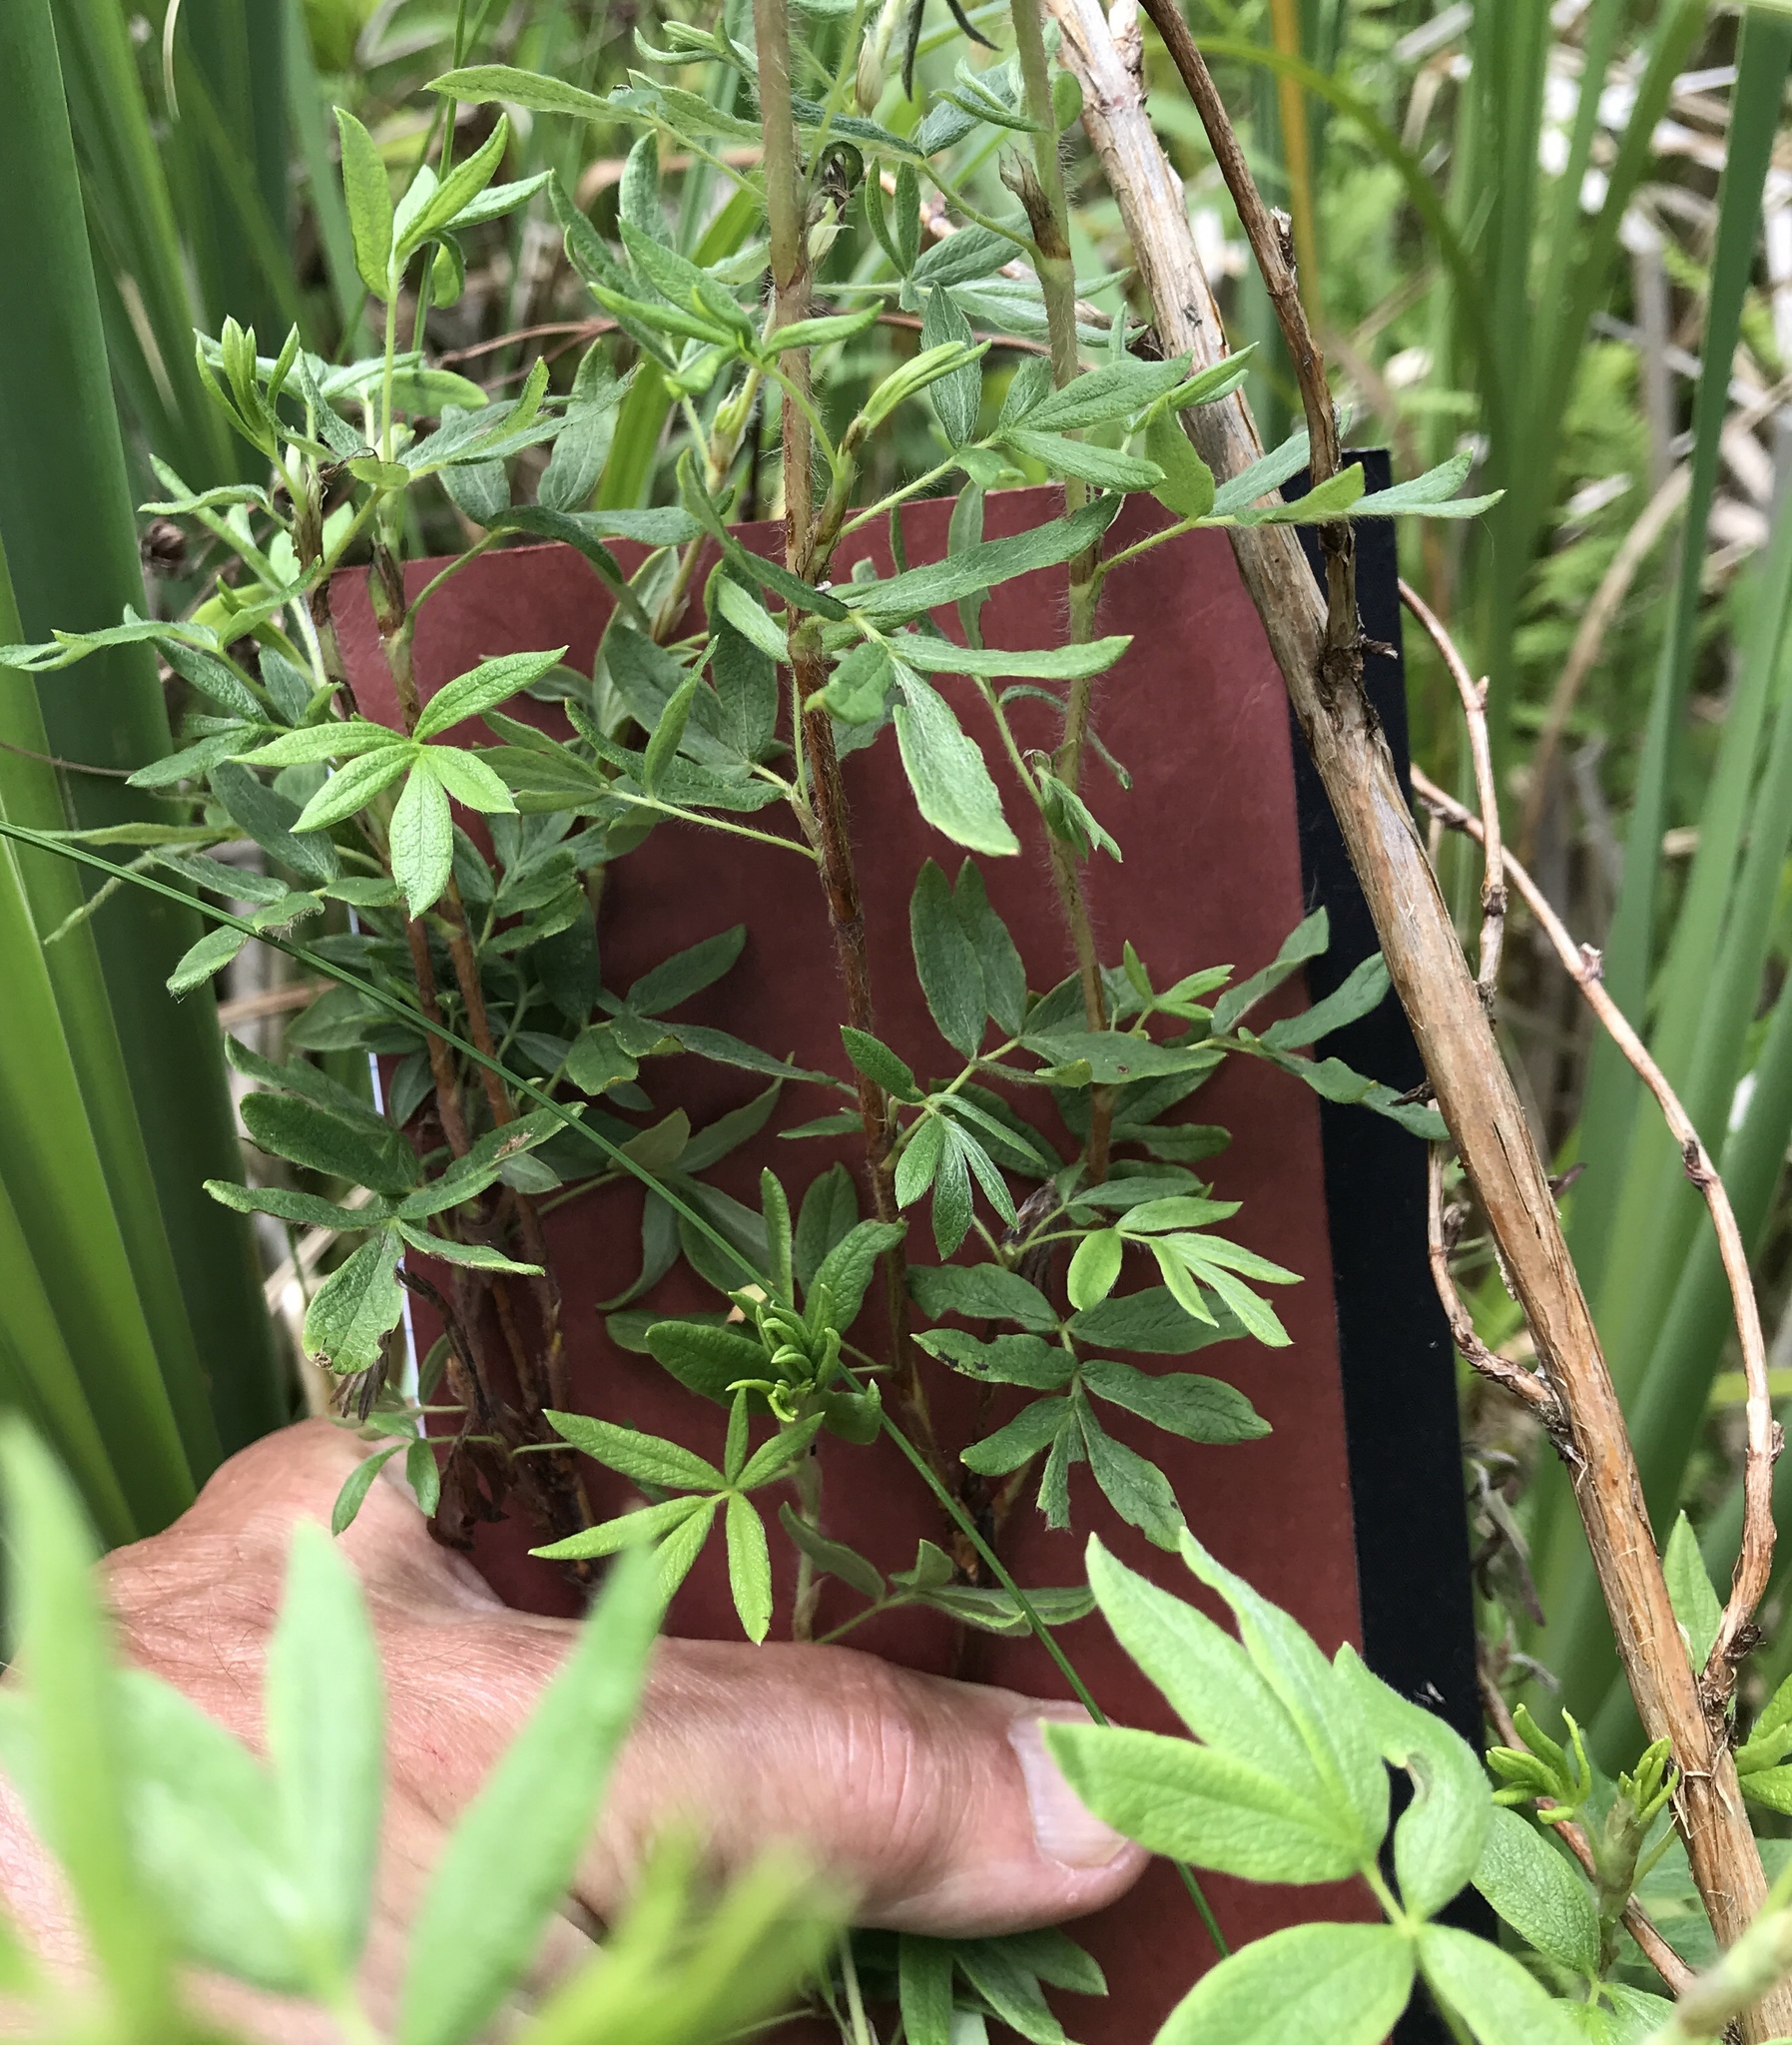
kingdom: Plantae
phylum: Tracheophyta
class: Magnoliopsida
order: Rosales
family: Rosaceae
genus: Dasiphora
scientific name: Dasiphora fruticosa
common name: Shrubby cinquefoil
